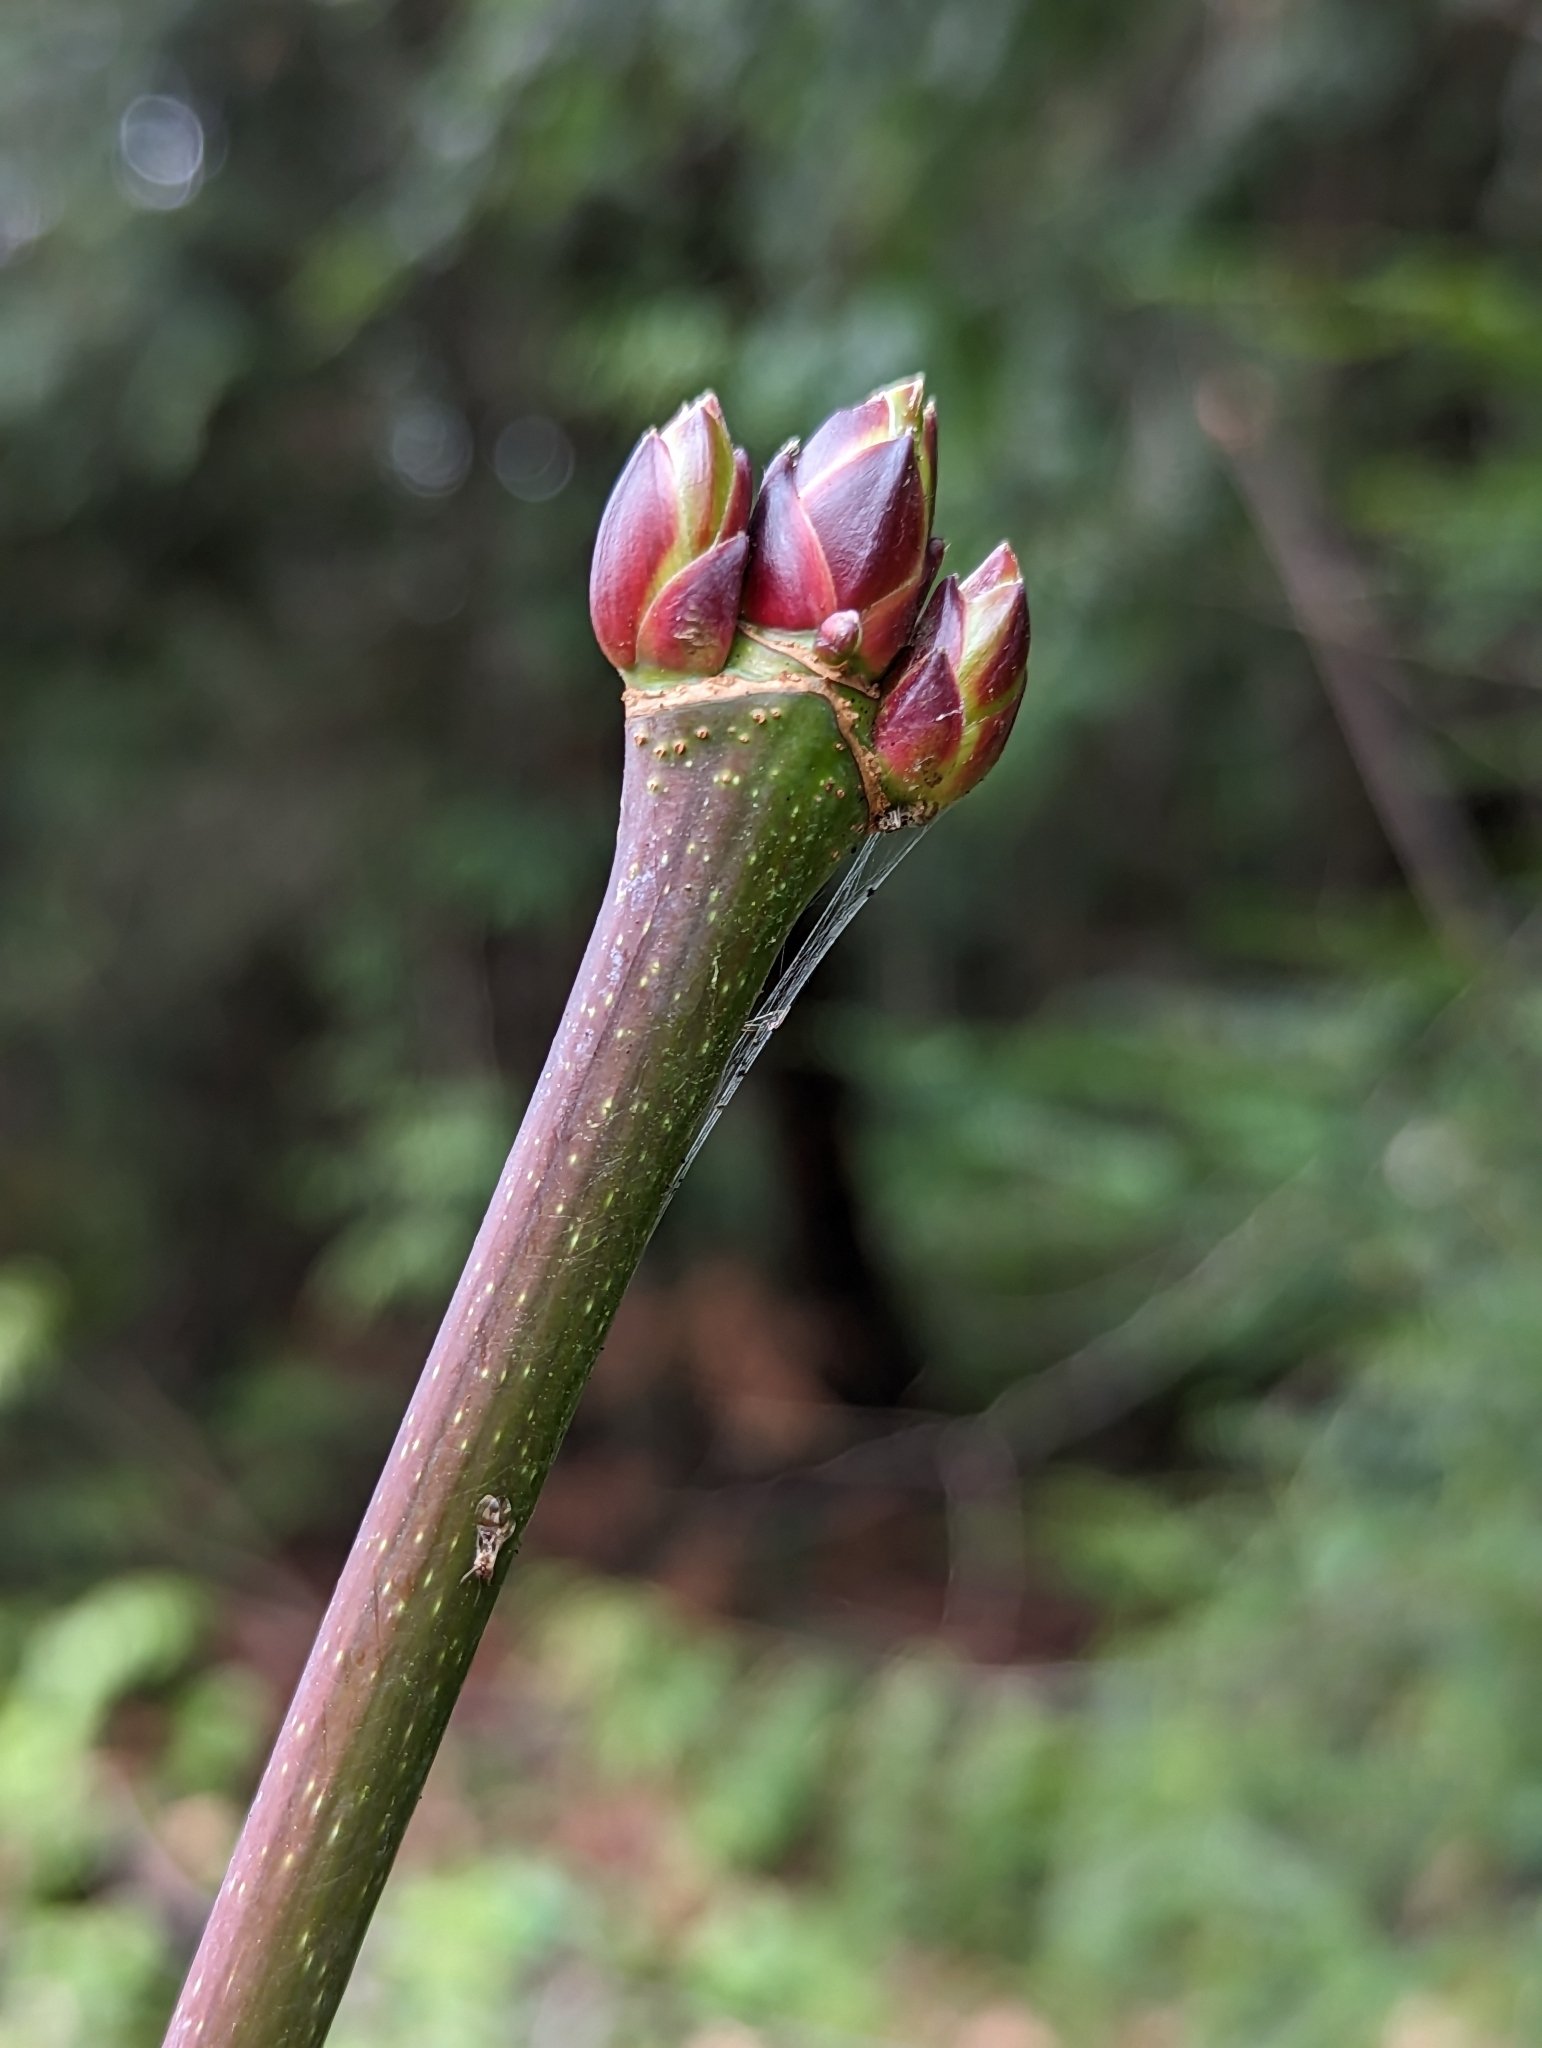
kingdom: Plantae
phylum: Tracheophyta
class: Magnoliopsida
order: Sapindales
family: Sapindaceae
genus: Acer
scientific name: Acer macrophyllum
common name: Oregon maple
